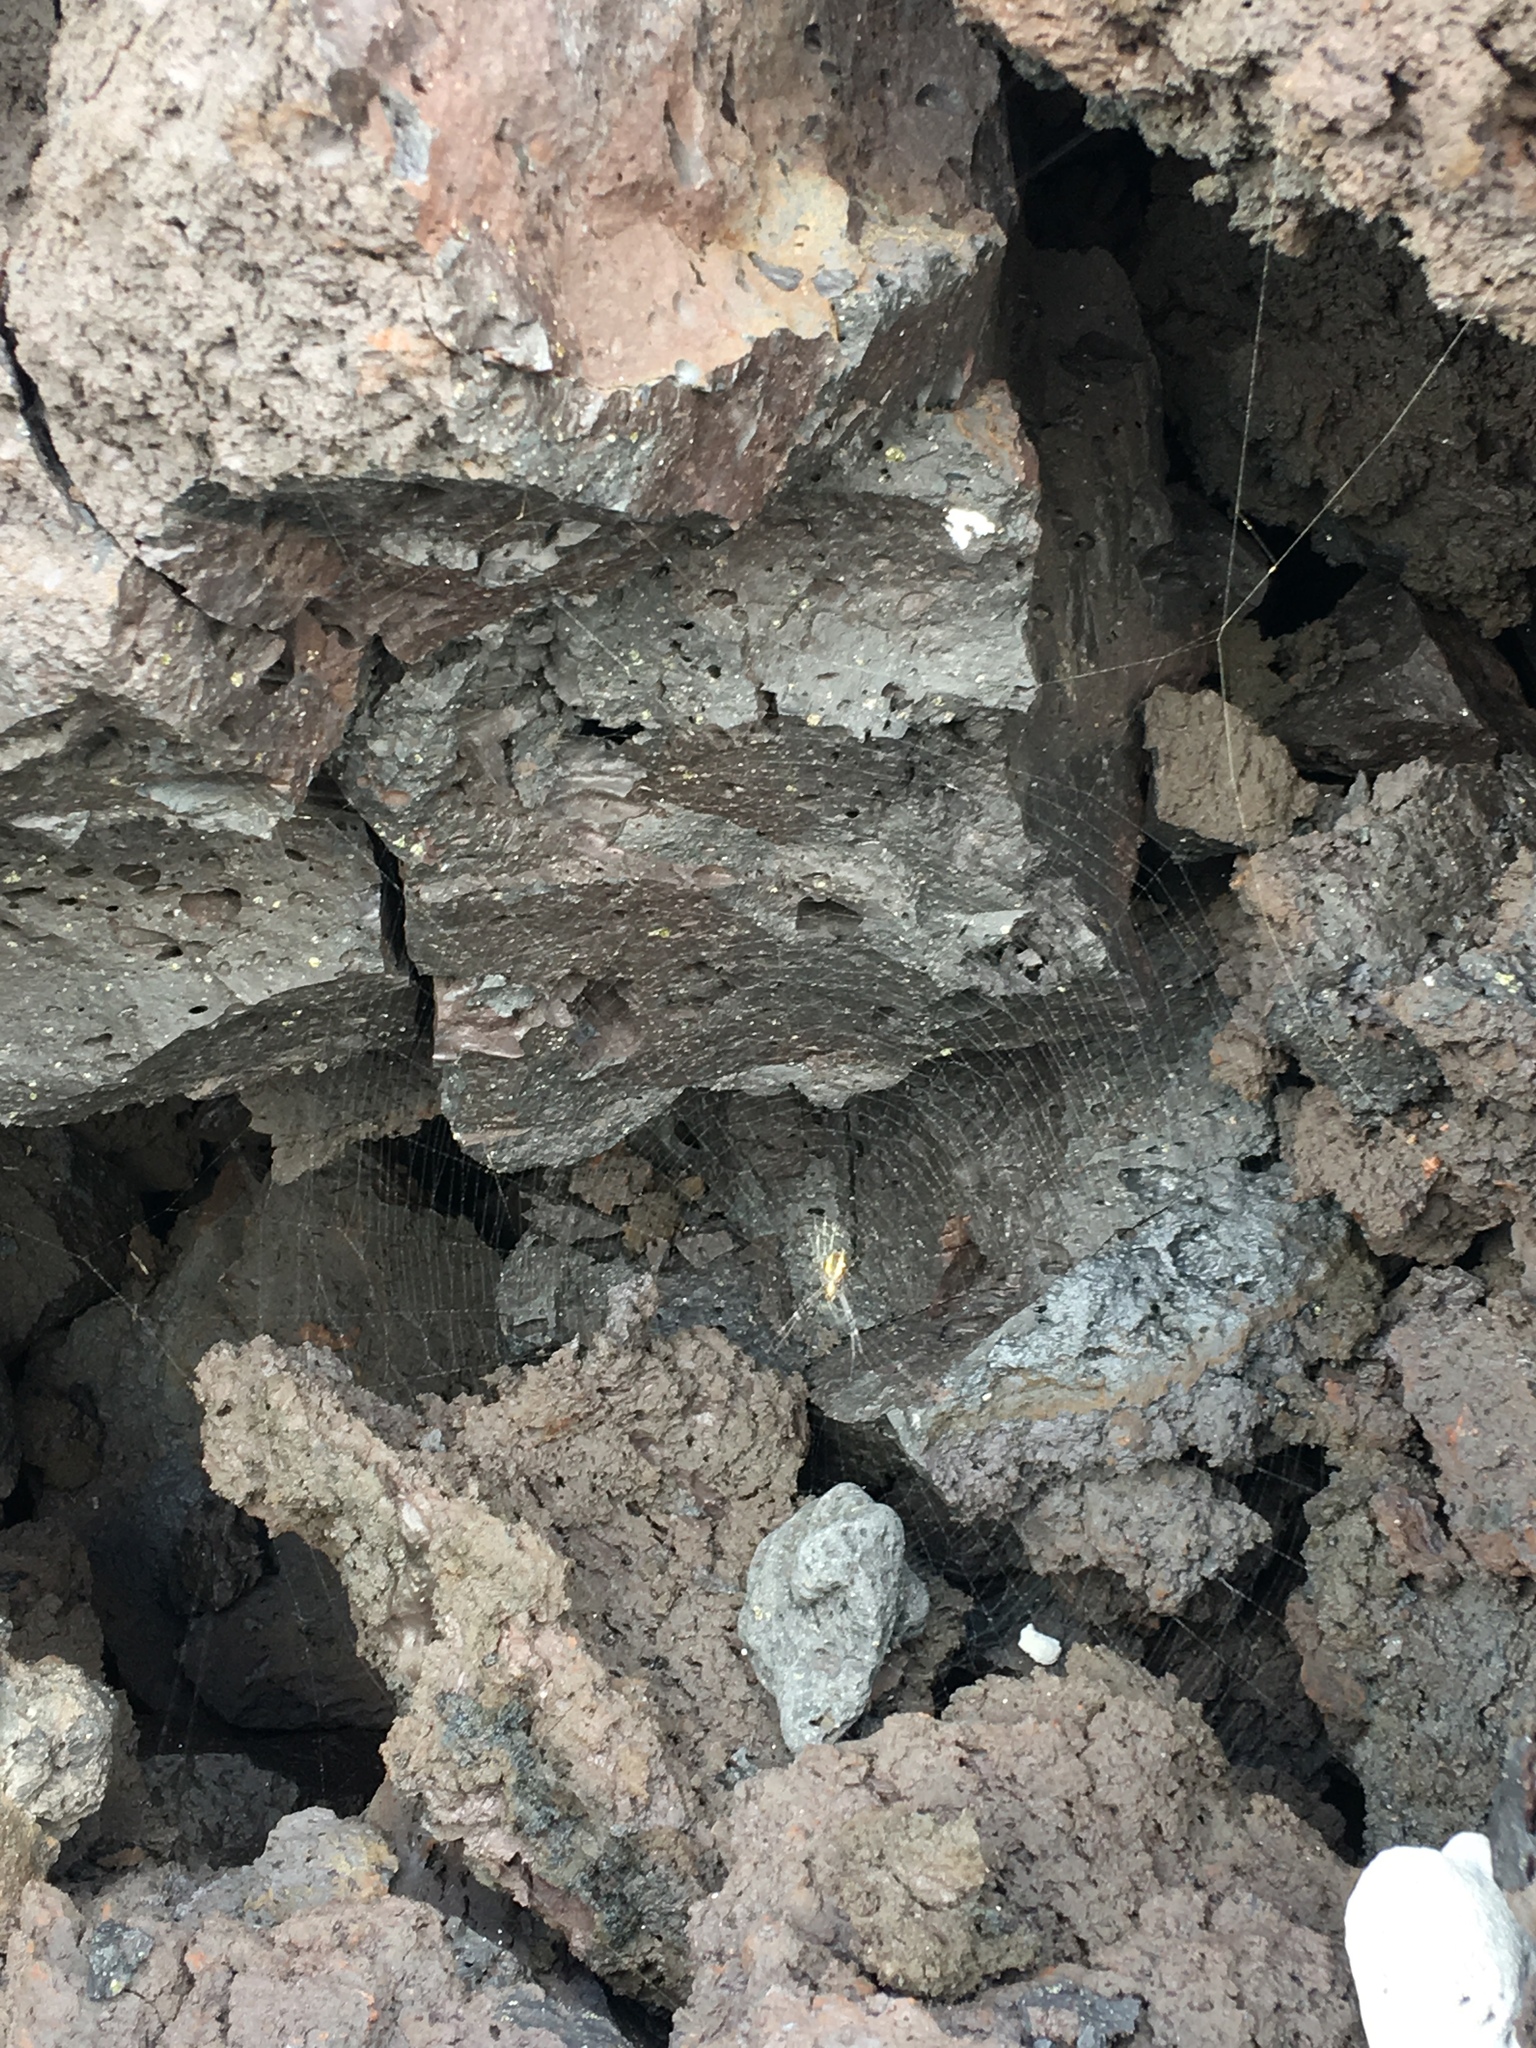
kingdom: Animalia
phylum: Arthropoda
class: Arachnida
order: Araneae
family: Araneidae
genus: Argiope
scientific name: Argiope appensa
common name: Garden spider
